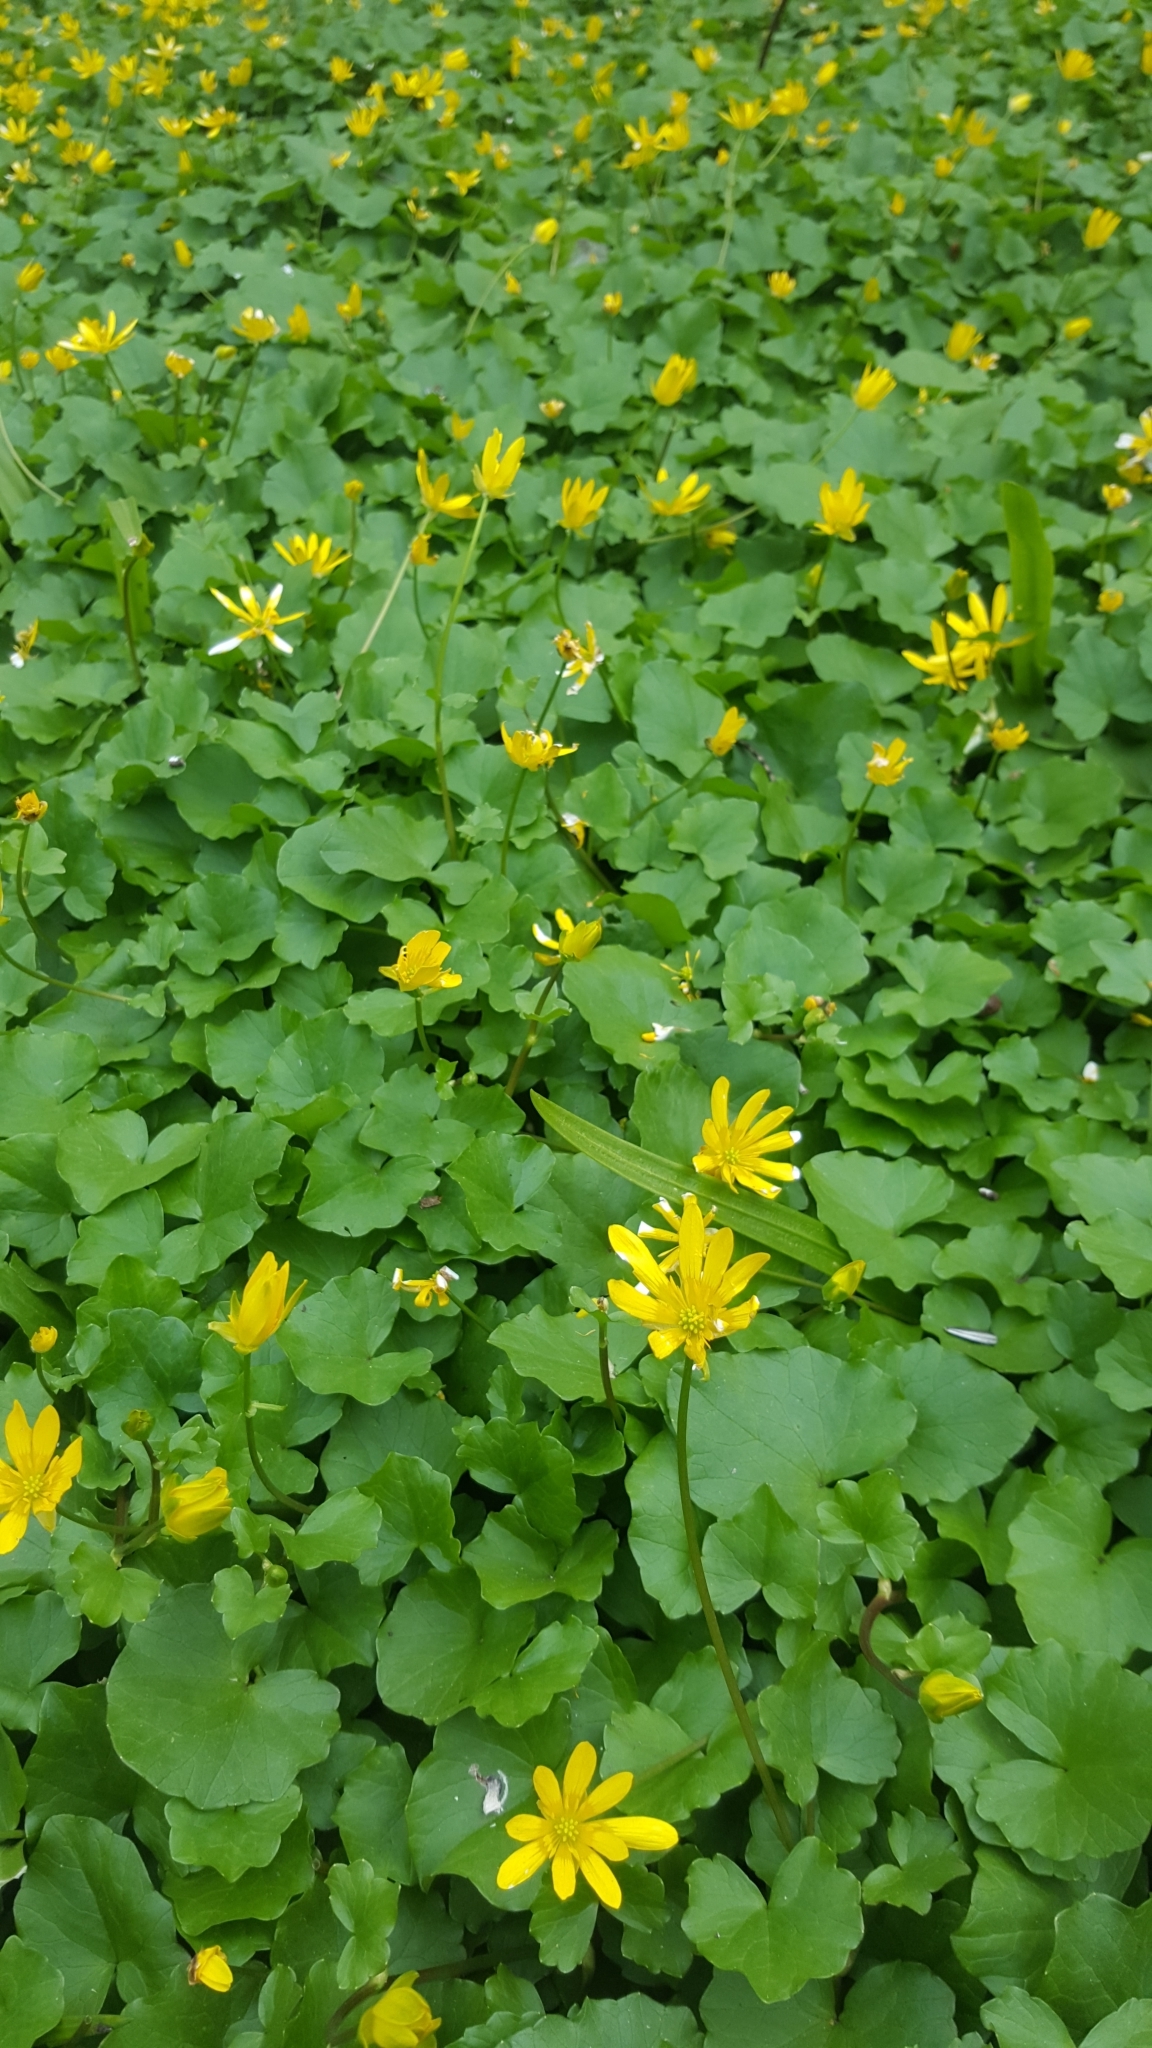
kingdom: Plantae
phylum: Tracheophyta
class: Magnoliopsida
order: Ranunculales
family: Ranunculaceae
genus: Ficaria
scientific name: Ficaria verna
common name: Lesser celandine
